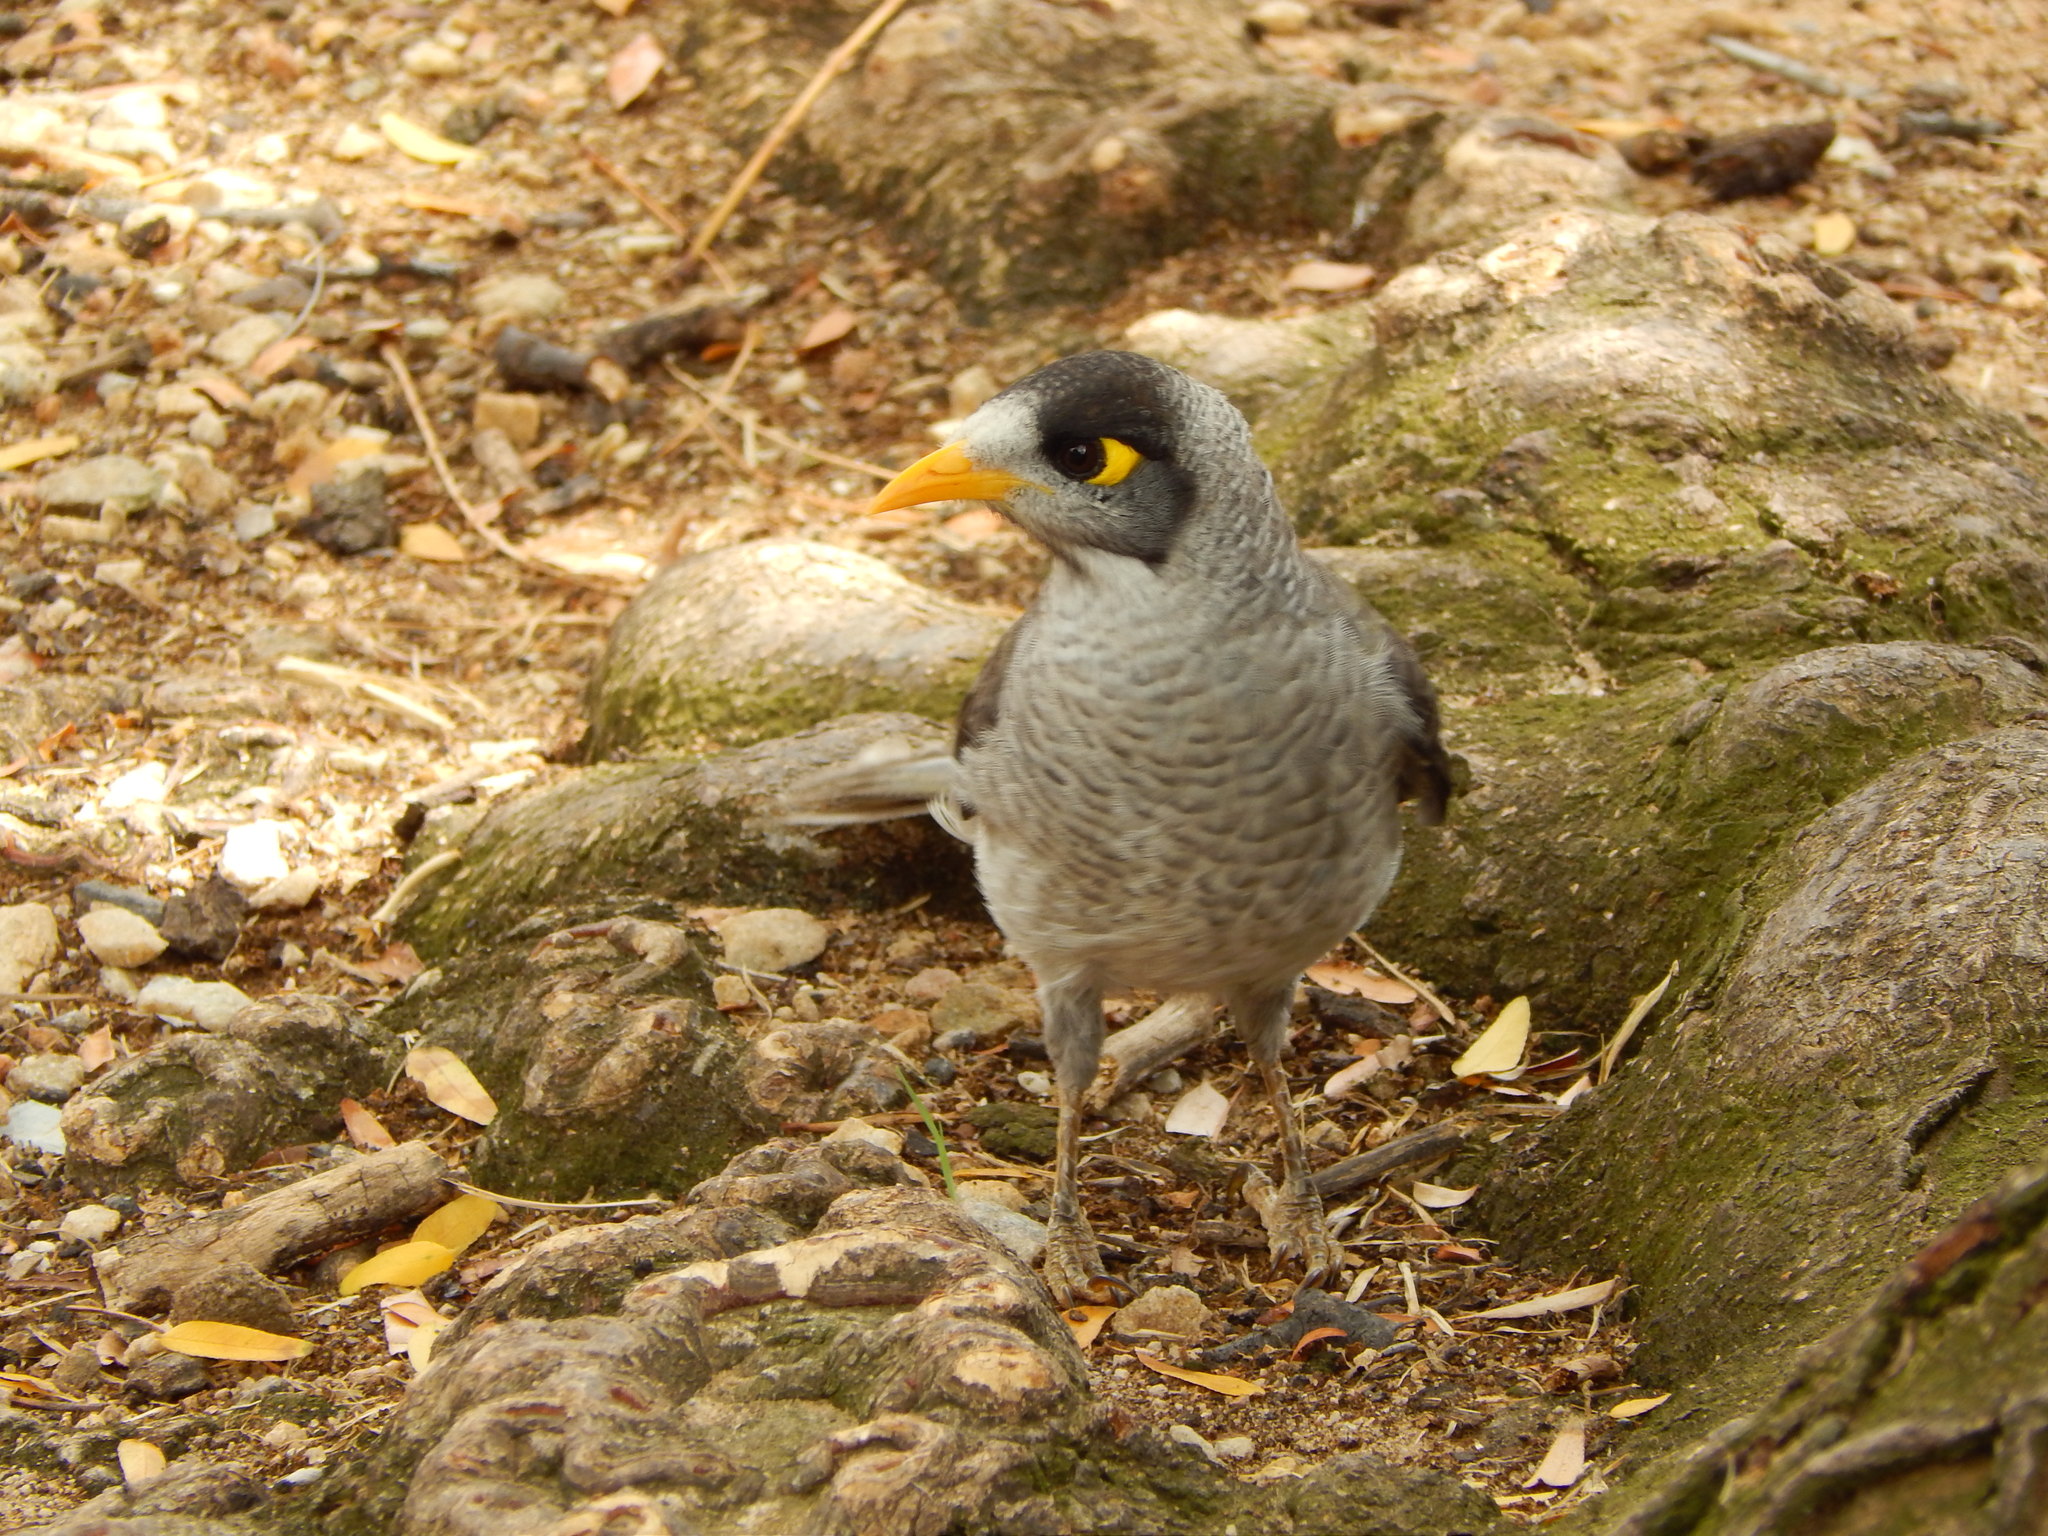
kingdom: Animalia
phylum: Chordata
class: Aves
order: Passeriformes
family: Meliphagidae
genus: Manorina
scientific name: Manorina melanocephala
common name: Noisy miner
